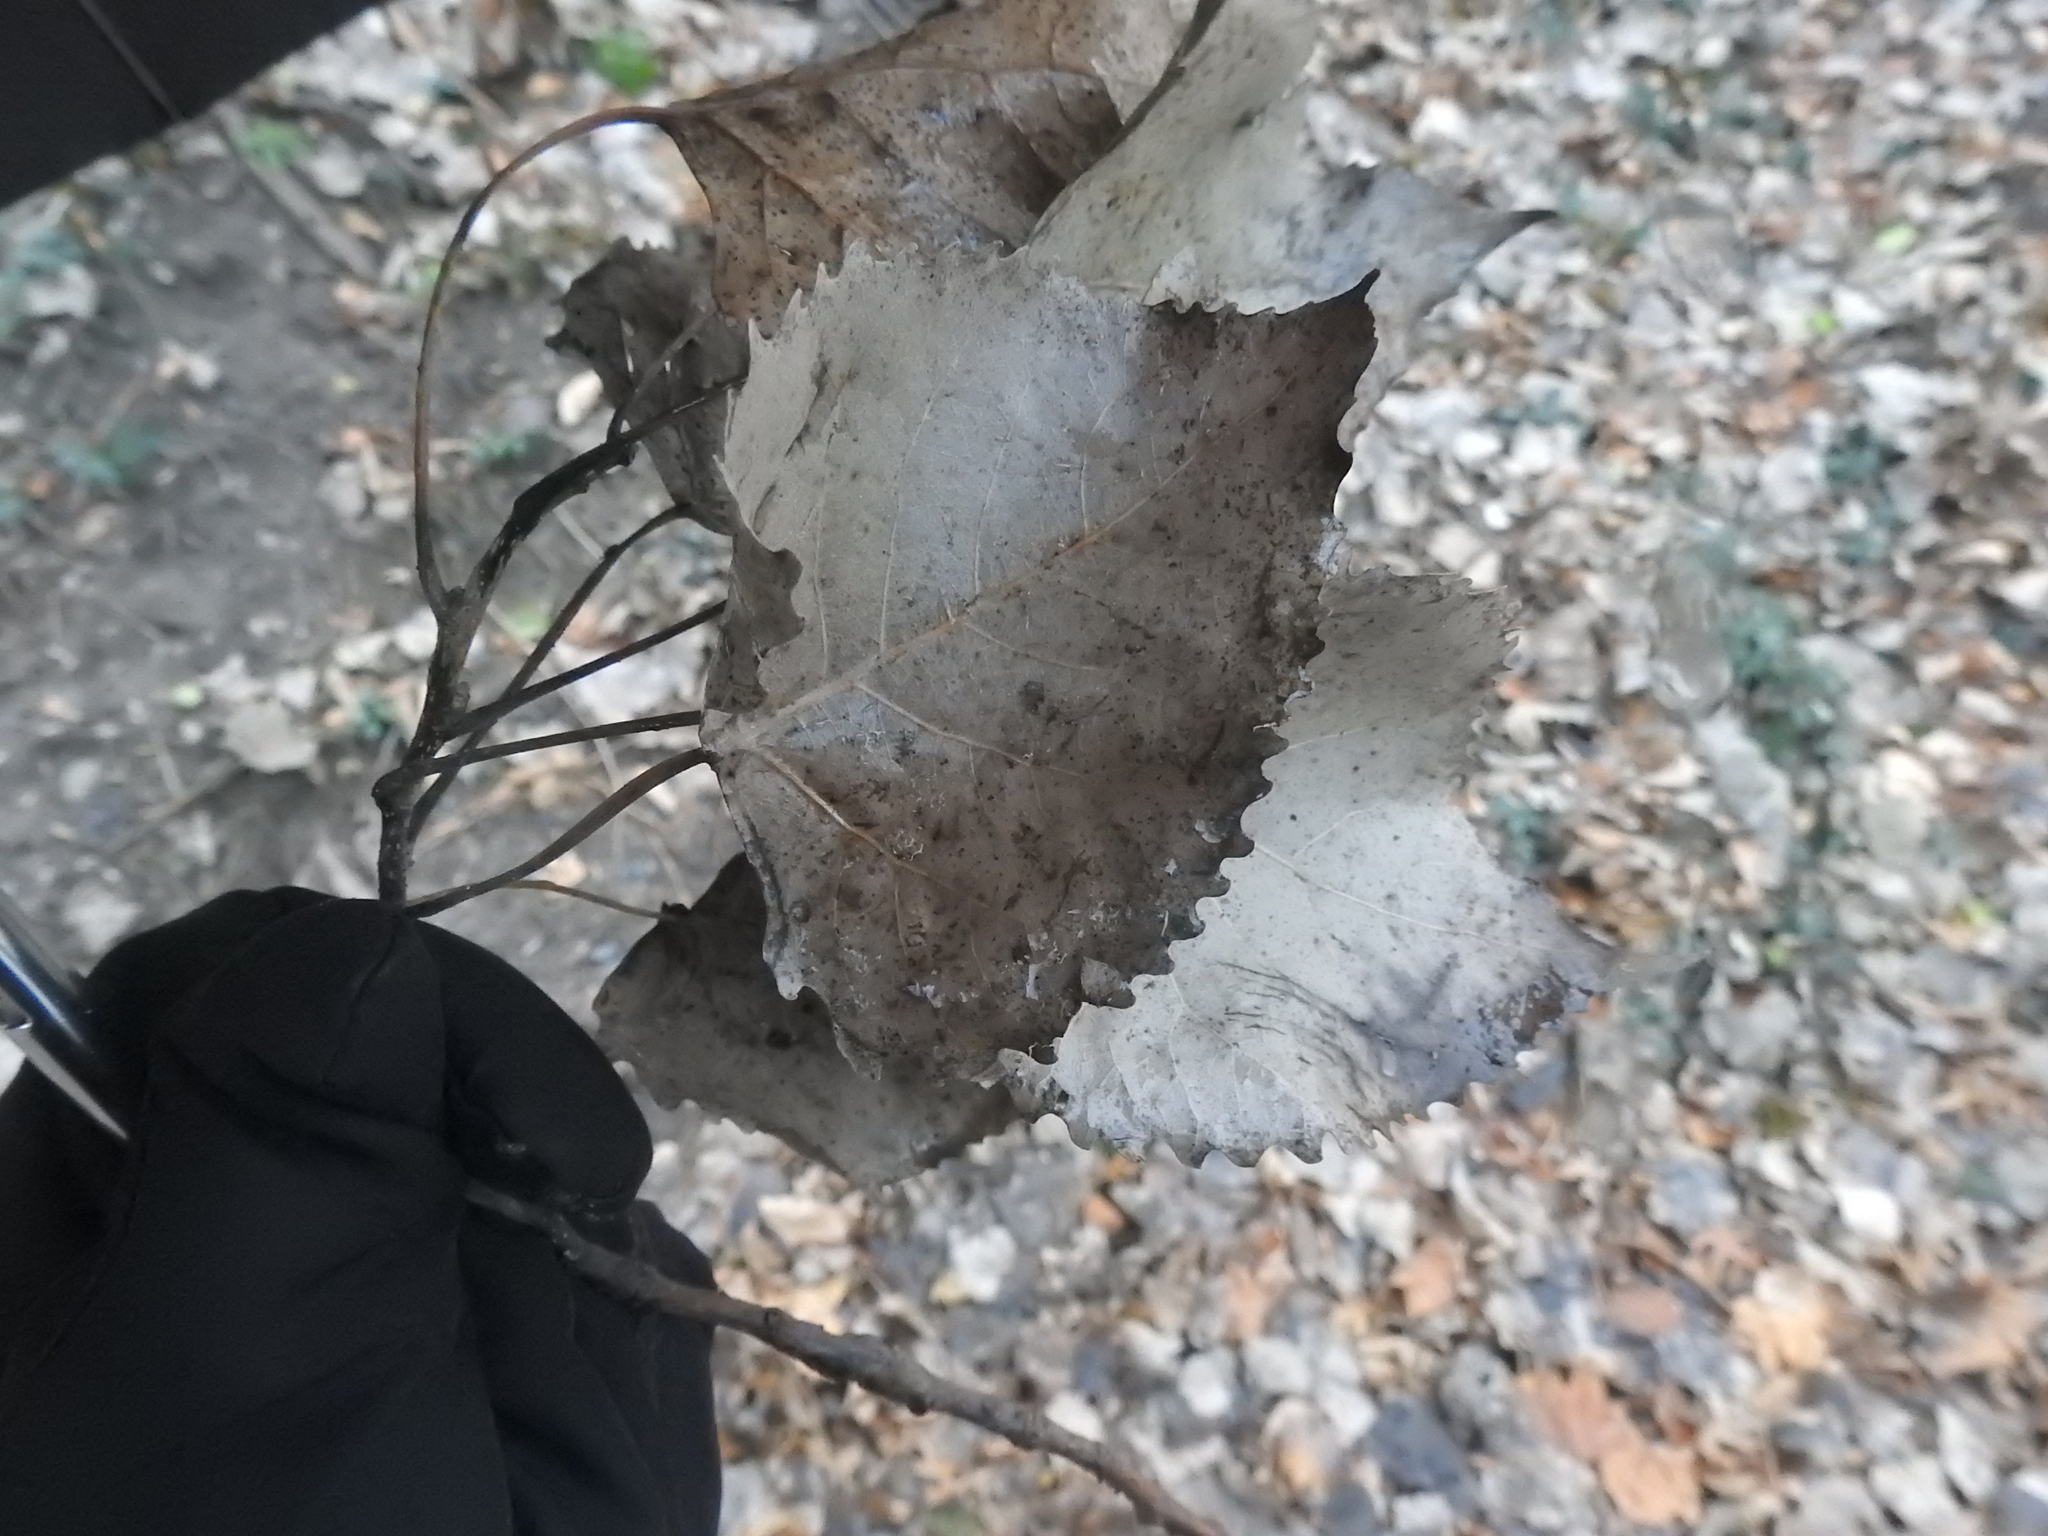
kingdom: Plantae
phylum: Tracheophyta
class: Magnoliopsida
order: Malpighiales
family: Salicaceae
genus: Populus
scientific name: Populus deltoides
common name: Eastern cottonwood
